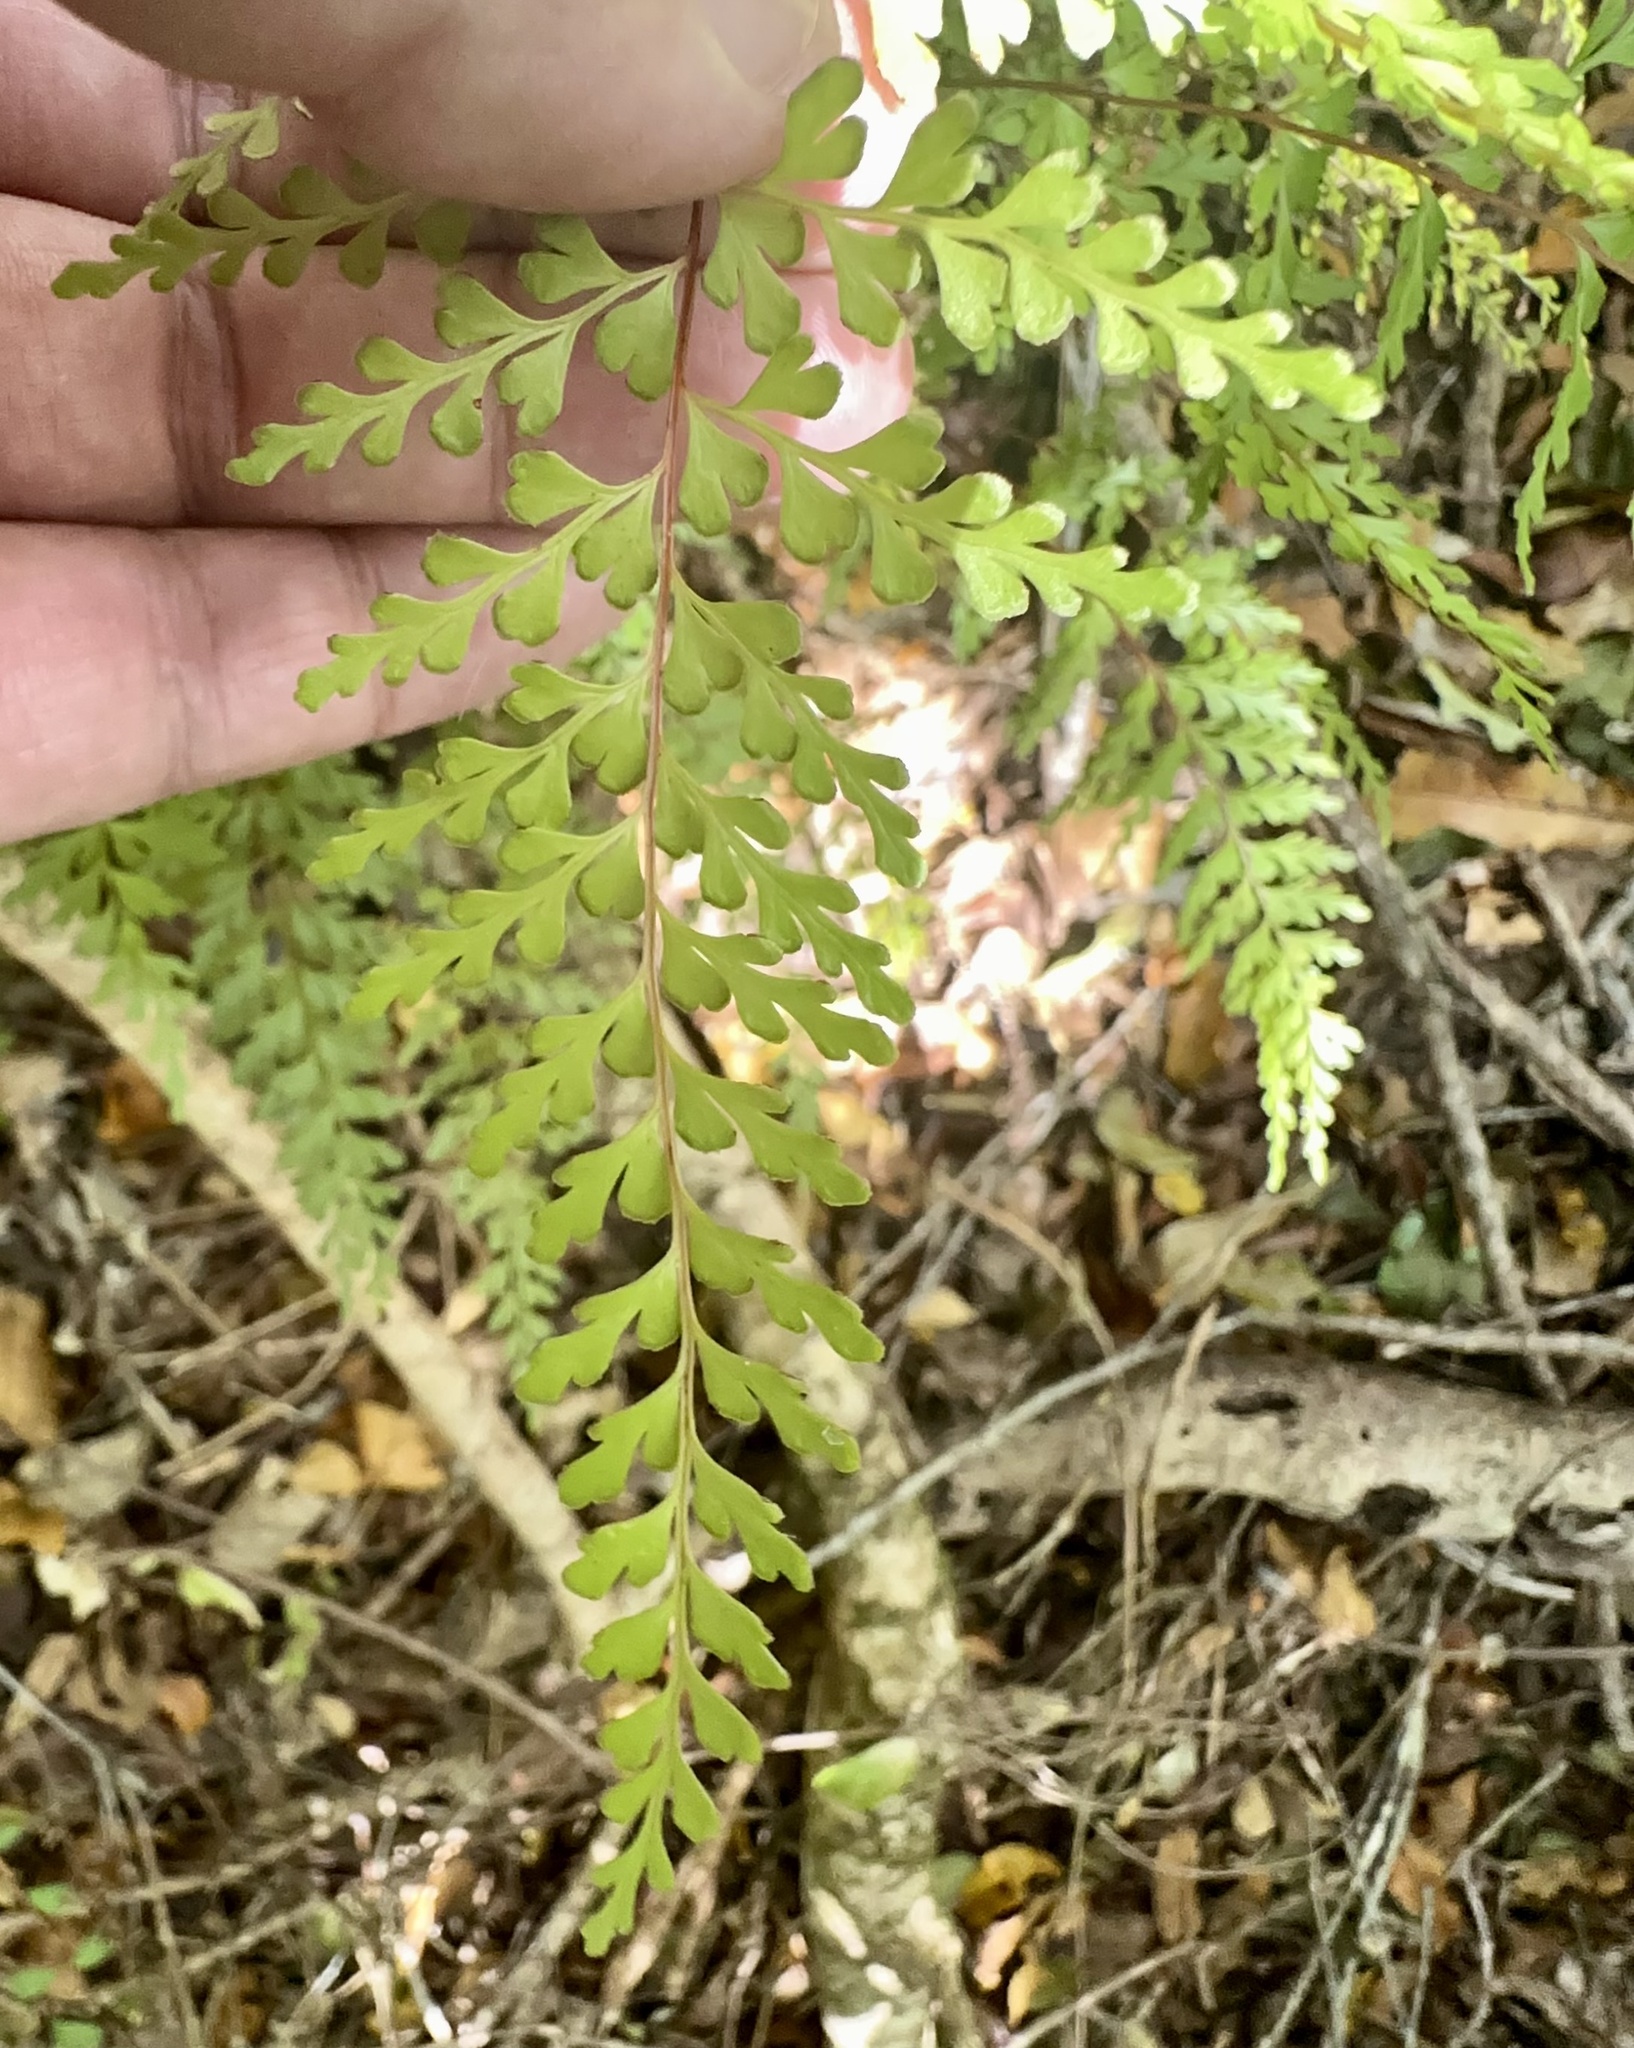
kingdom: Plantae
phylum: Tracheophyta
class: Polypodiopsida
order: Polypodiales
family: Lindsaeaceae
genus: Lindsaea
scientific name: Lindsaea trichomanoides
